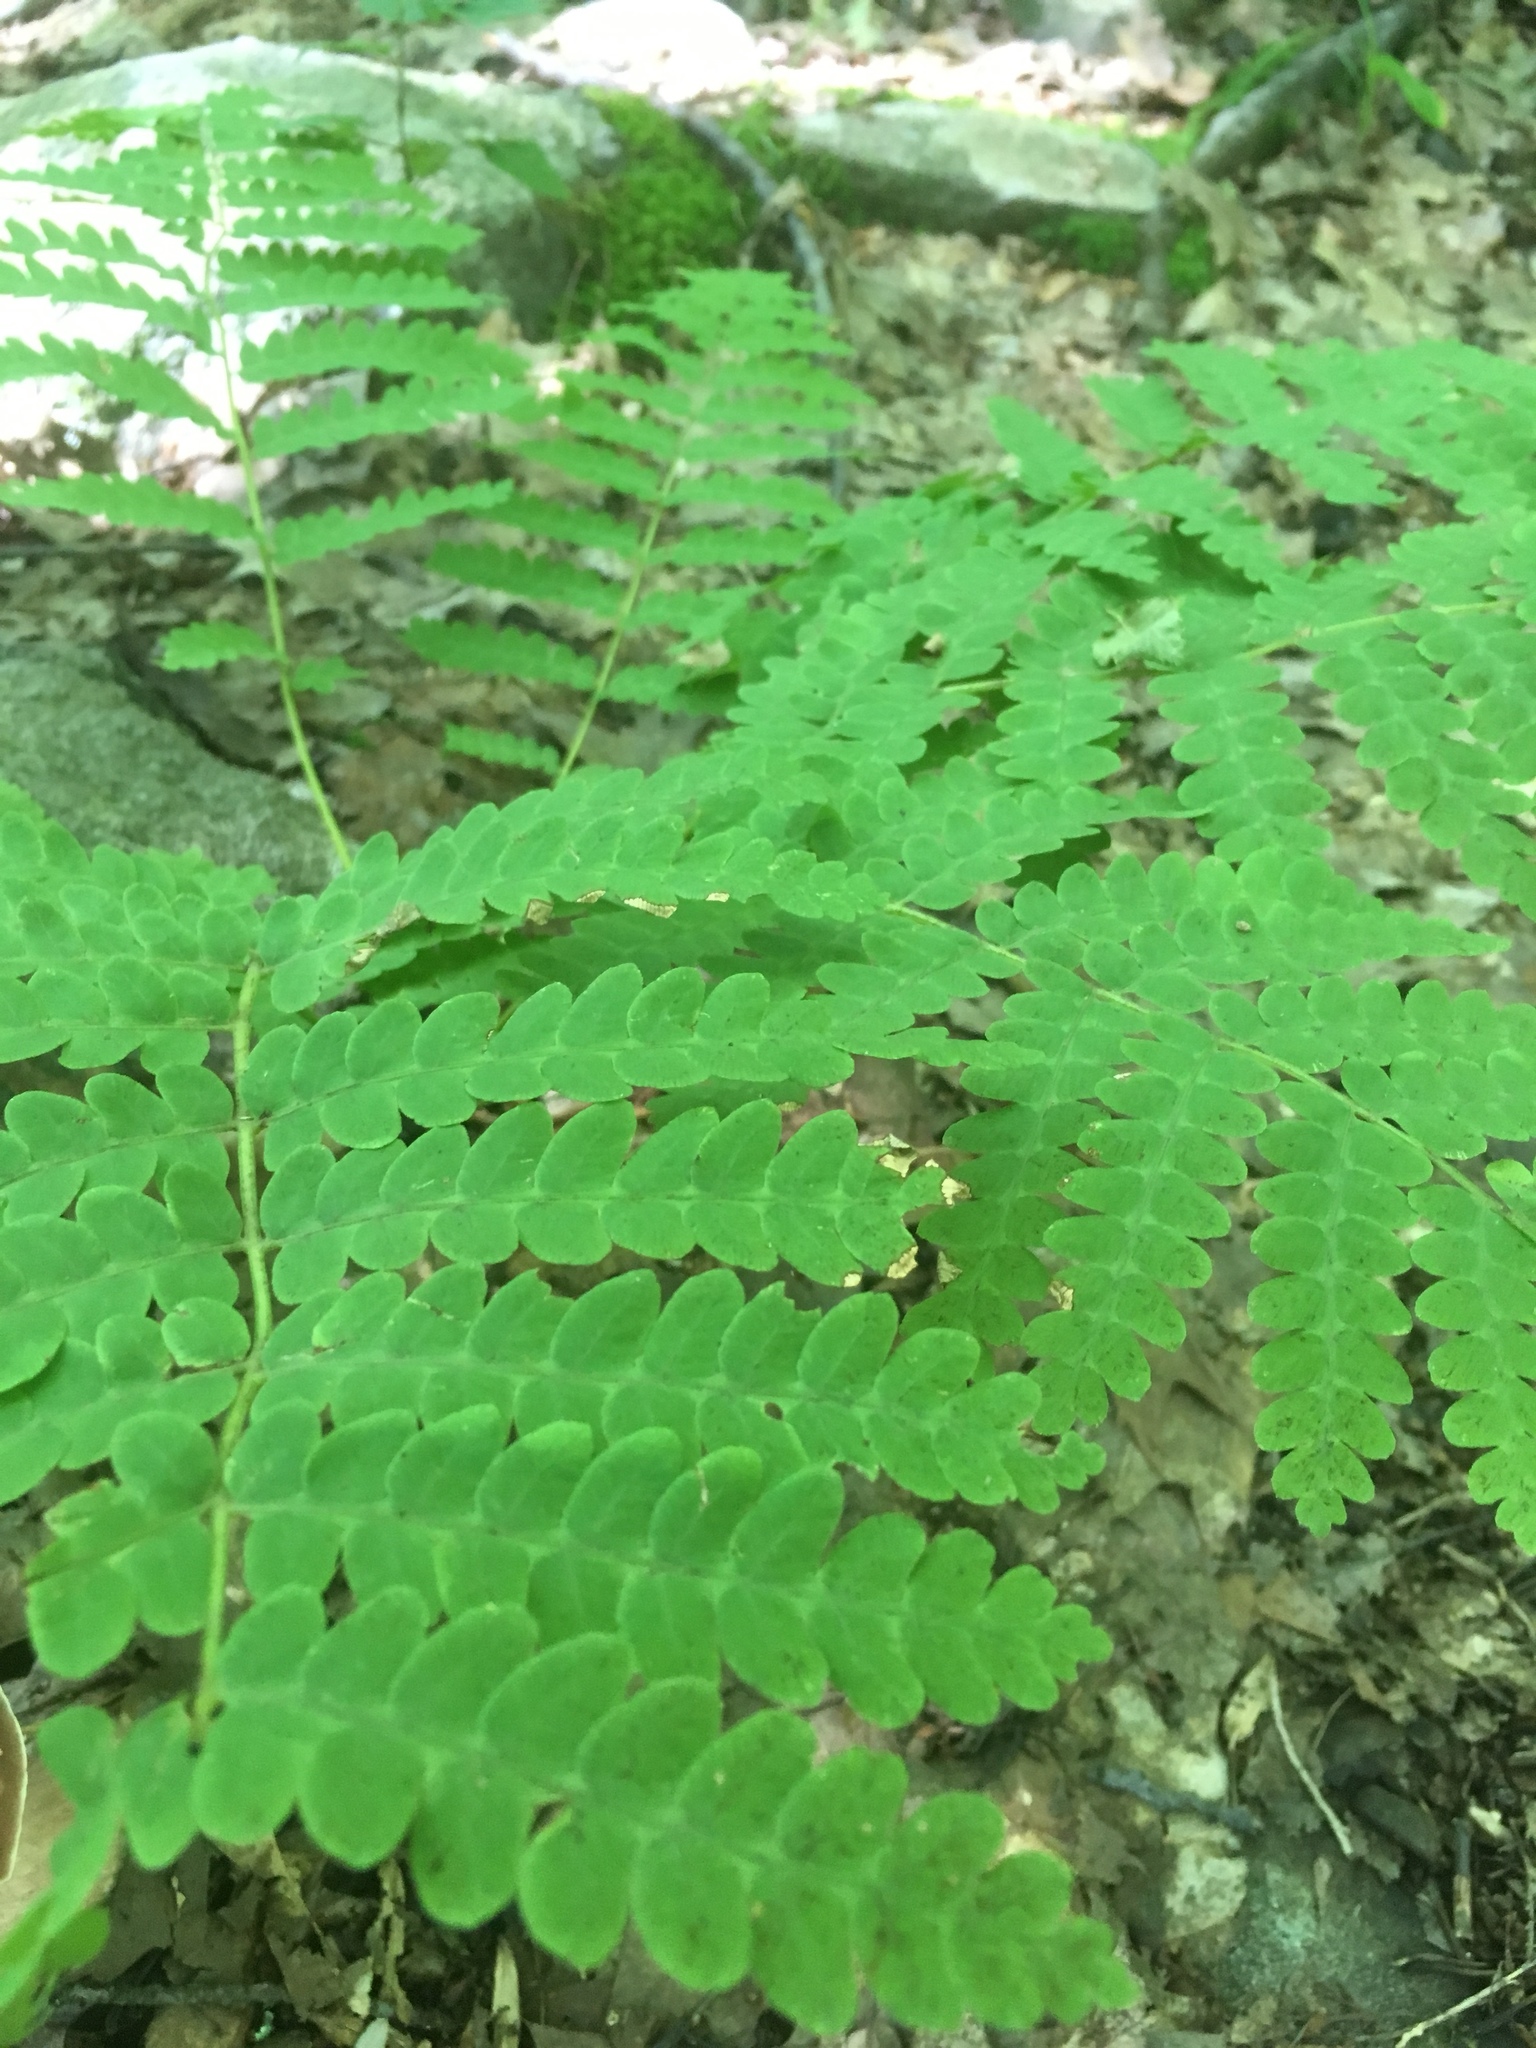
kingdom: Plantae
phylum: Tracheophyta
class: Polypodiopsida
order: Osmundales
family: Osmundaceae
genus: Claytosmunda
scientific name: Claytosmunda claytoniana
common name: Clayton's fern
